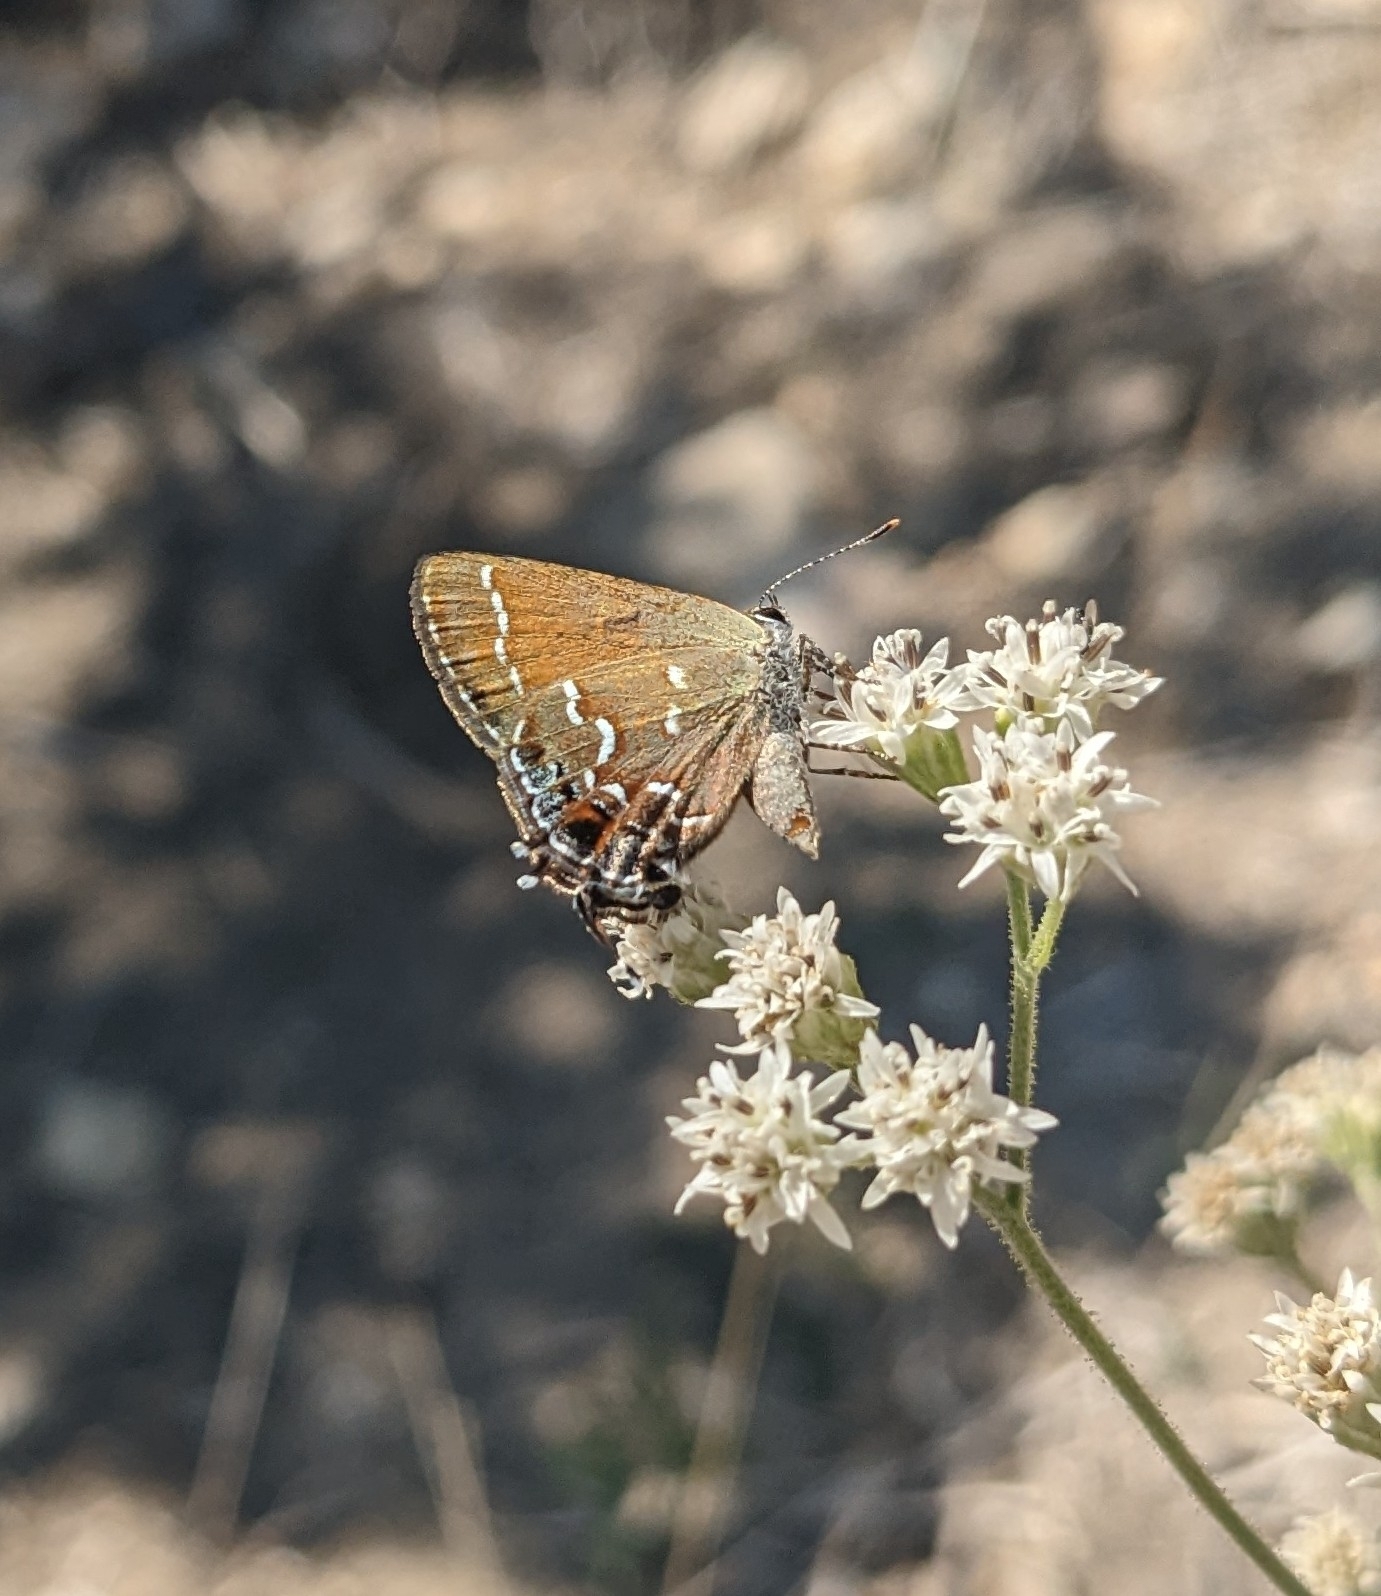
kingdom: Animalia
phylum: Arthropoda
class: Insecta
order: Lepidoptera
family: Lycaenidae
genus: Mitoura
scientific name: Mitoura gryneus
